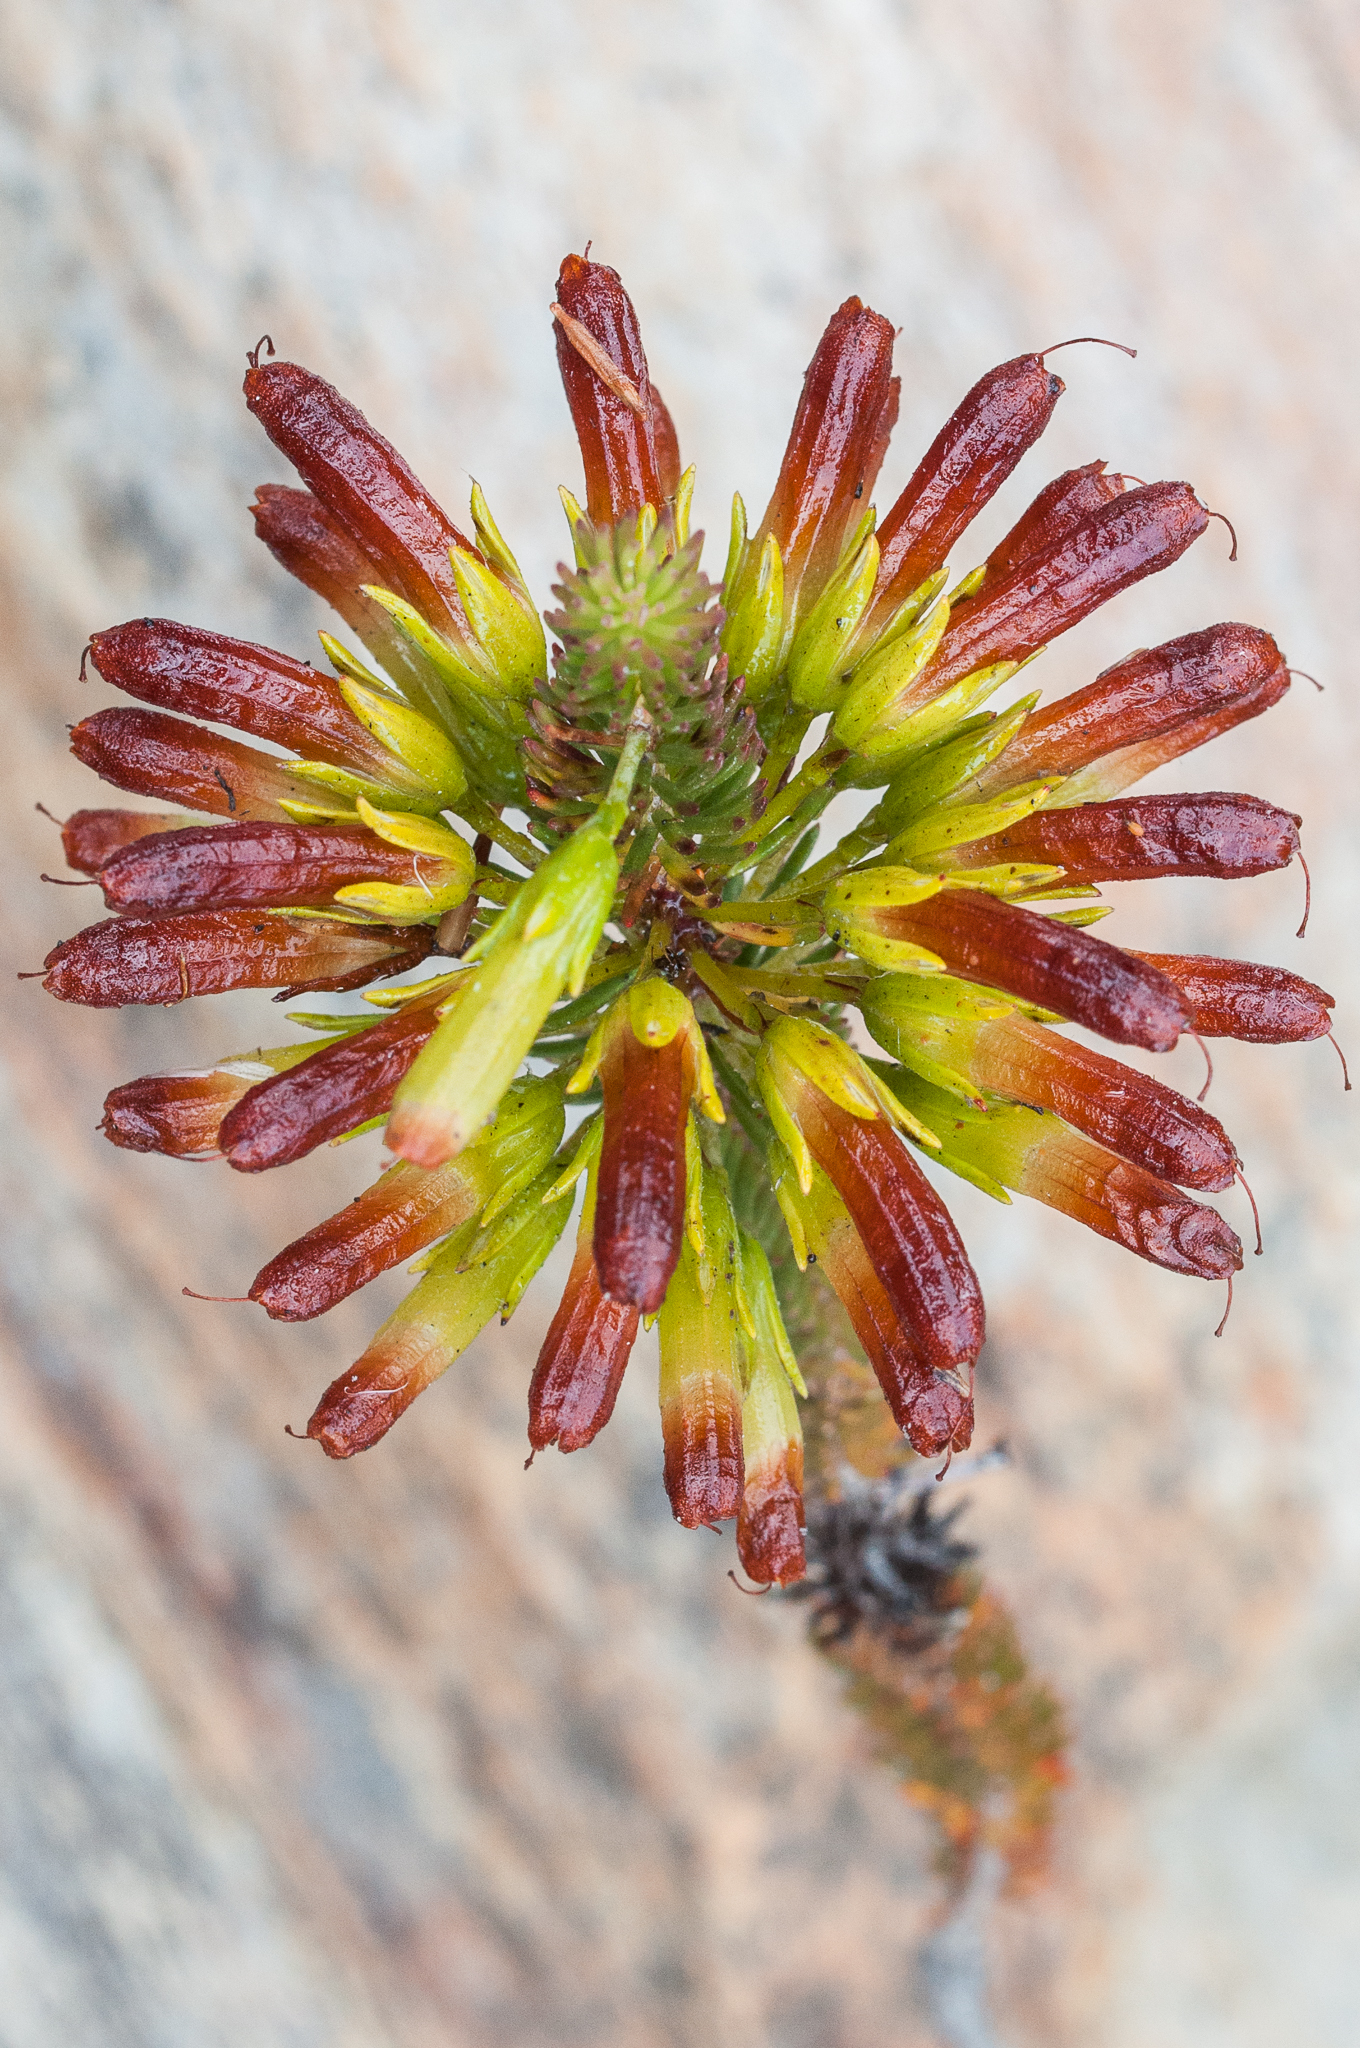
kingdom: Plantae
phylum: Tracheophyta
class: Magnoliopsida
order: Ericales
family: Ericaceae
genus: Erica
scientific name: Erica thomae
